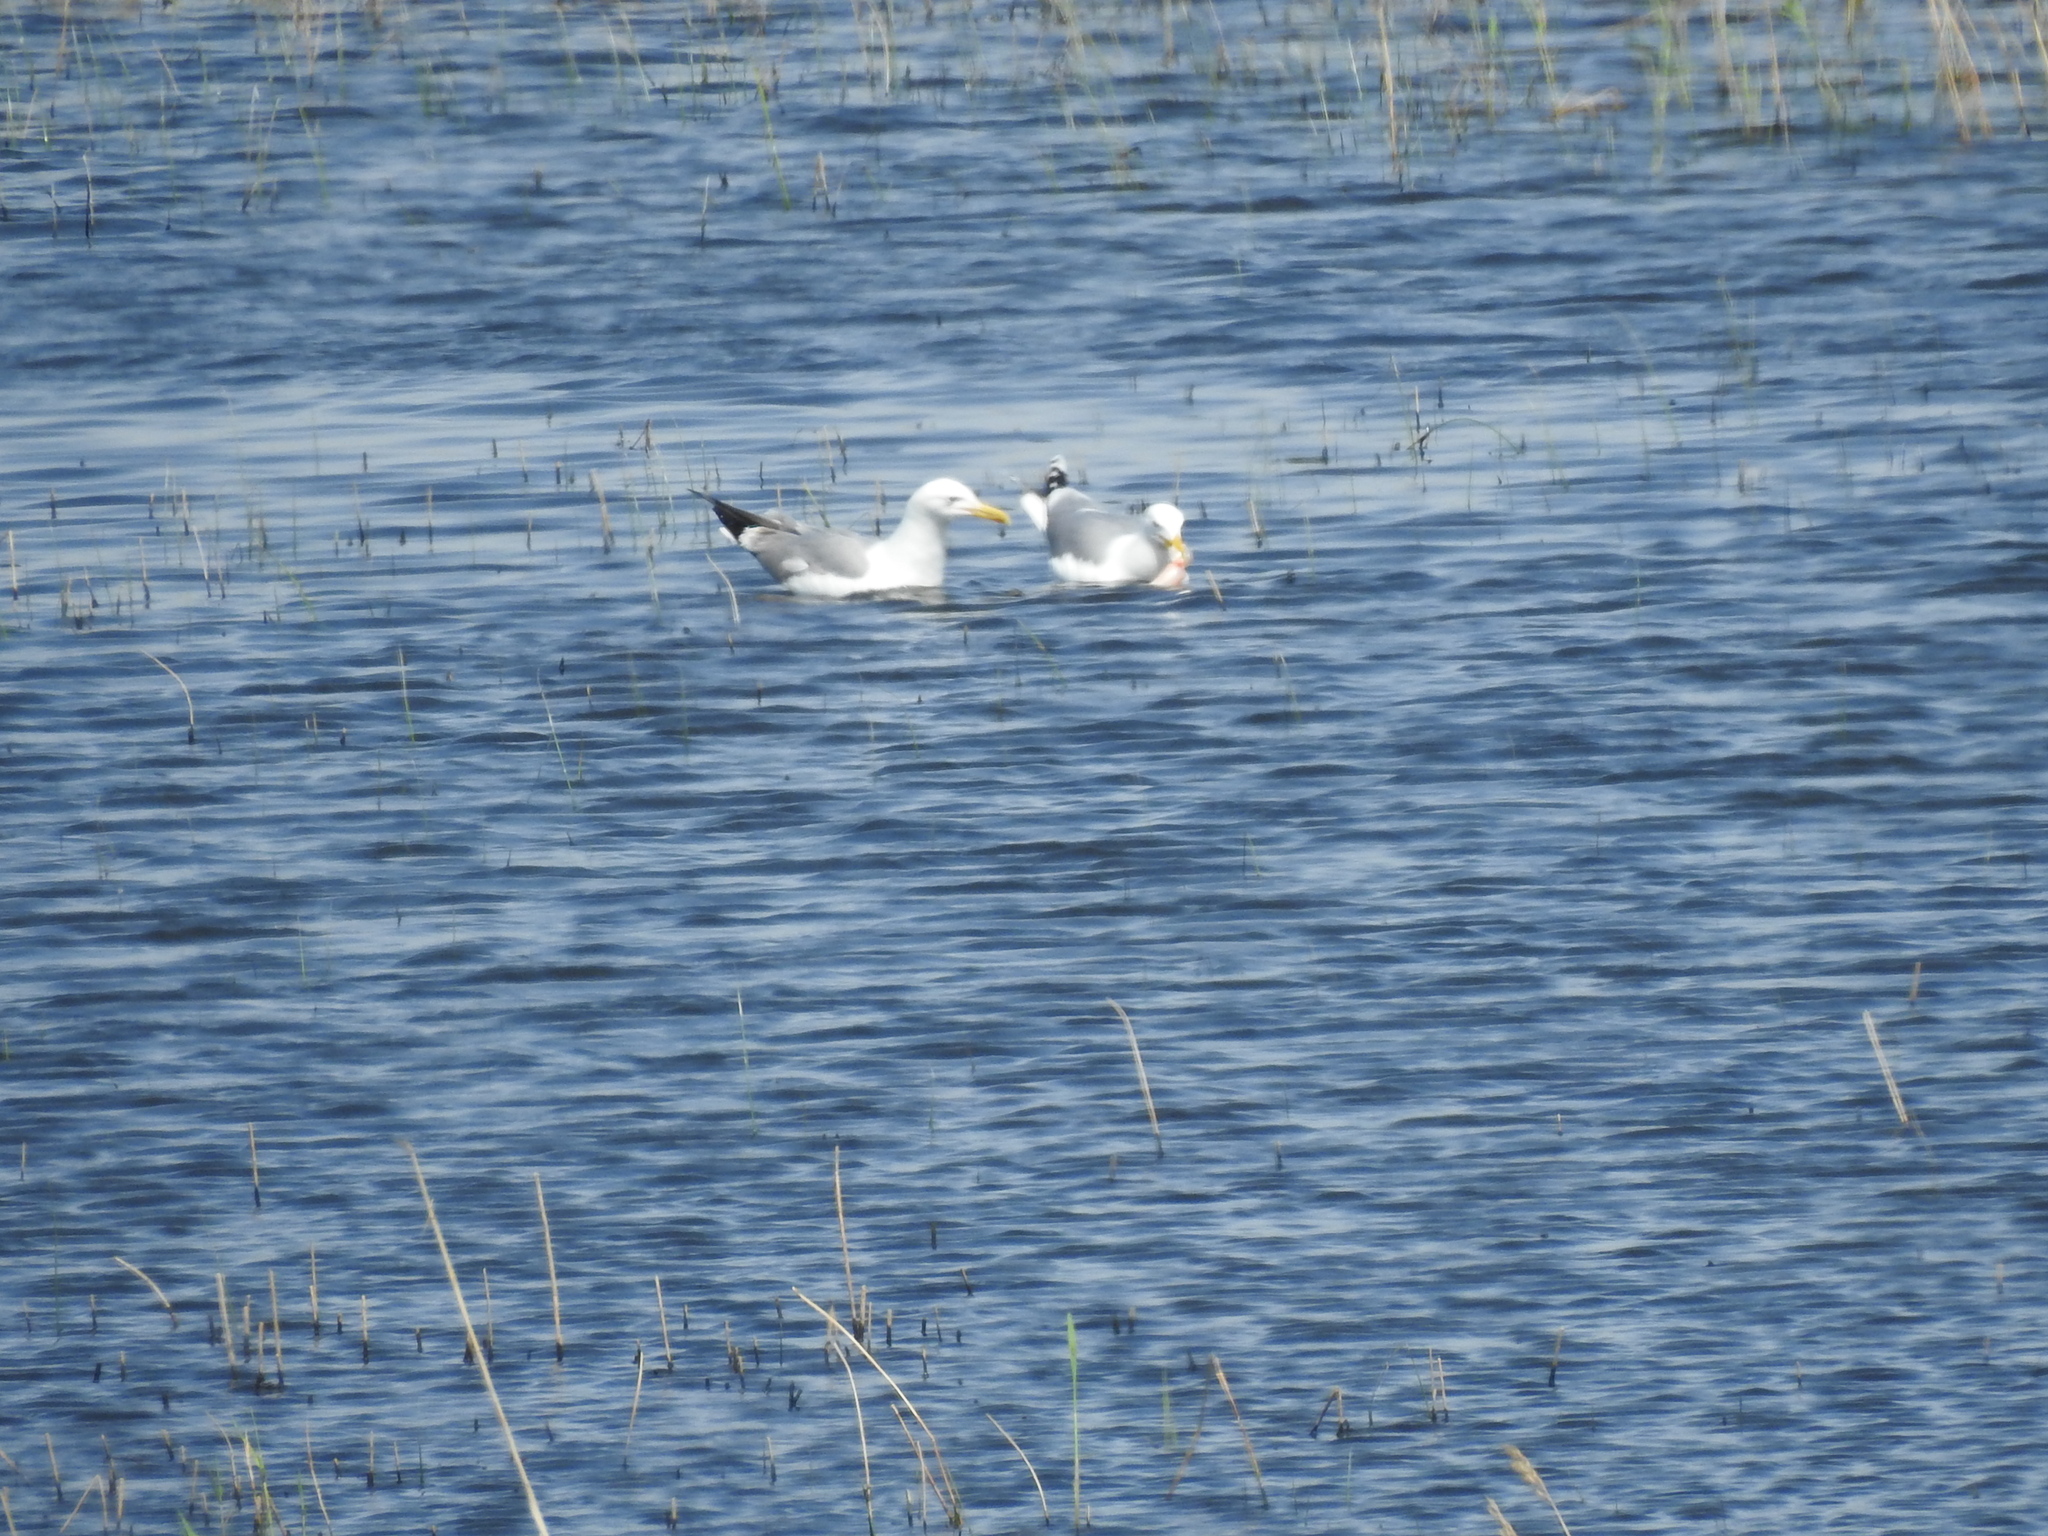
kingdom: Animalia
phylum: Chordata
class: Aves
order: Charadriiformes
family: Laridae
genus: Larus
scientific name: Larus cachinnans
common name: Caspian gull
